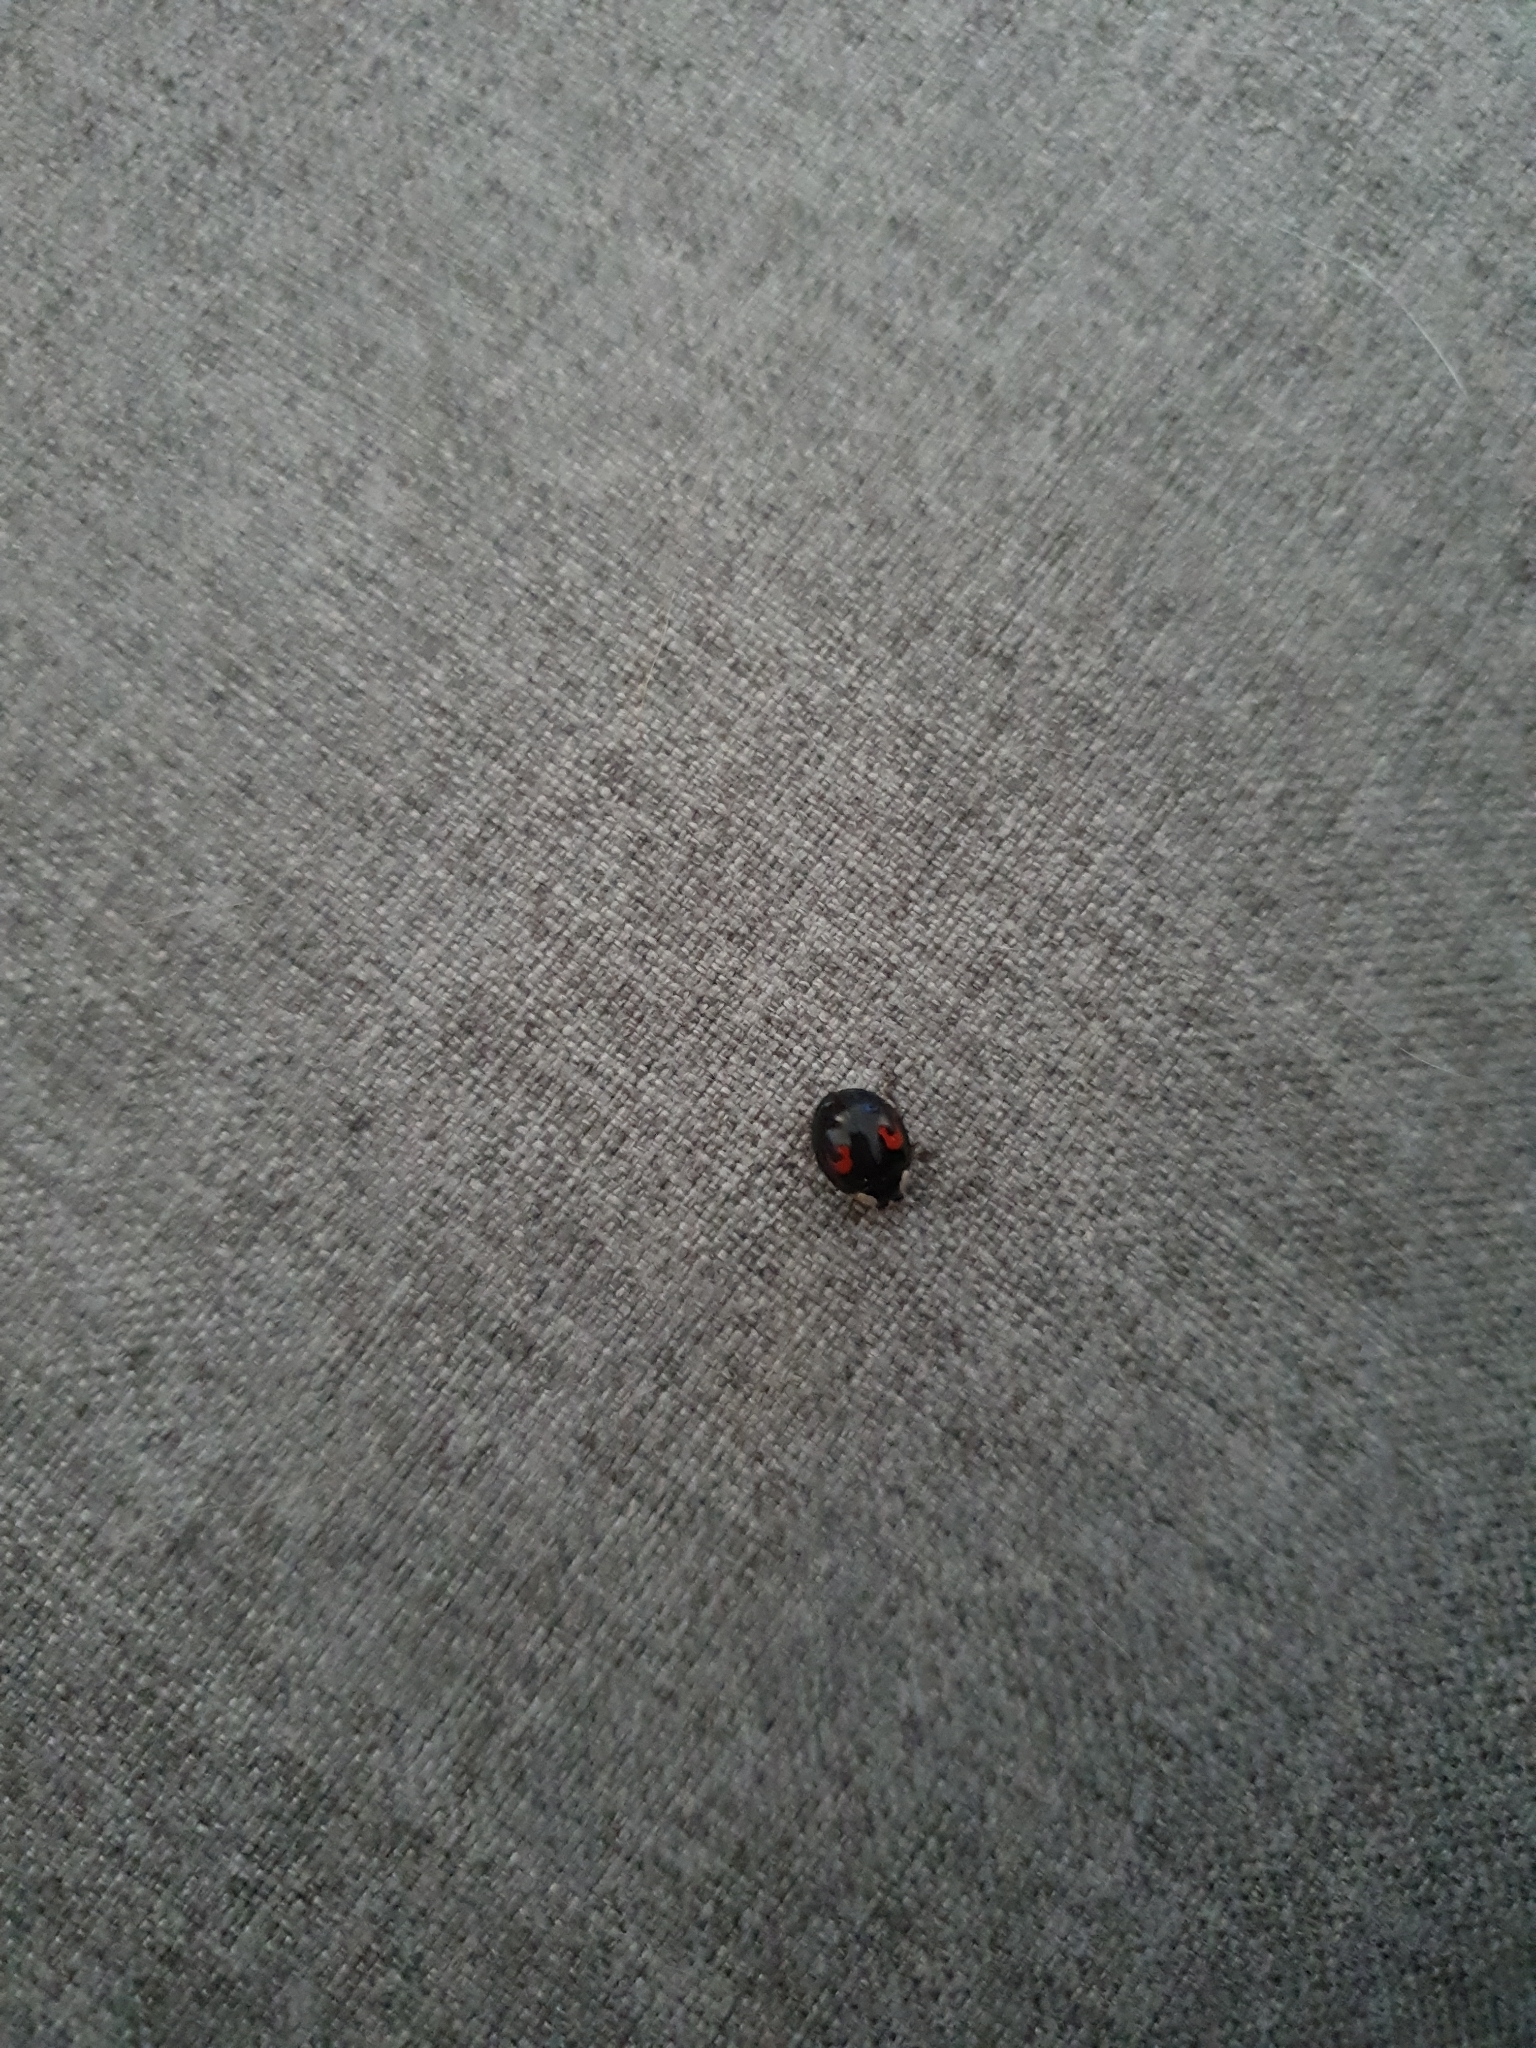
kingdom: Animalia
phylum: Arthropoda
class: Insecta
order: Coleoptera
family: Coccinellidae
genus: Harmonia
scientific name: Harmonia axyridis
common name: Harlequin ladybird
